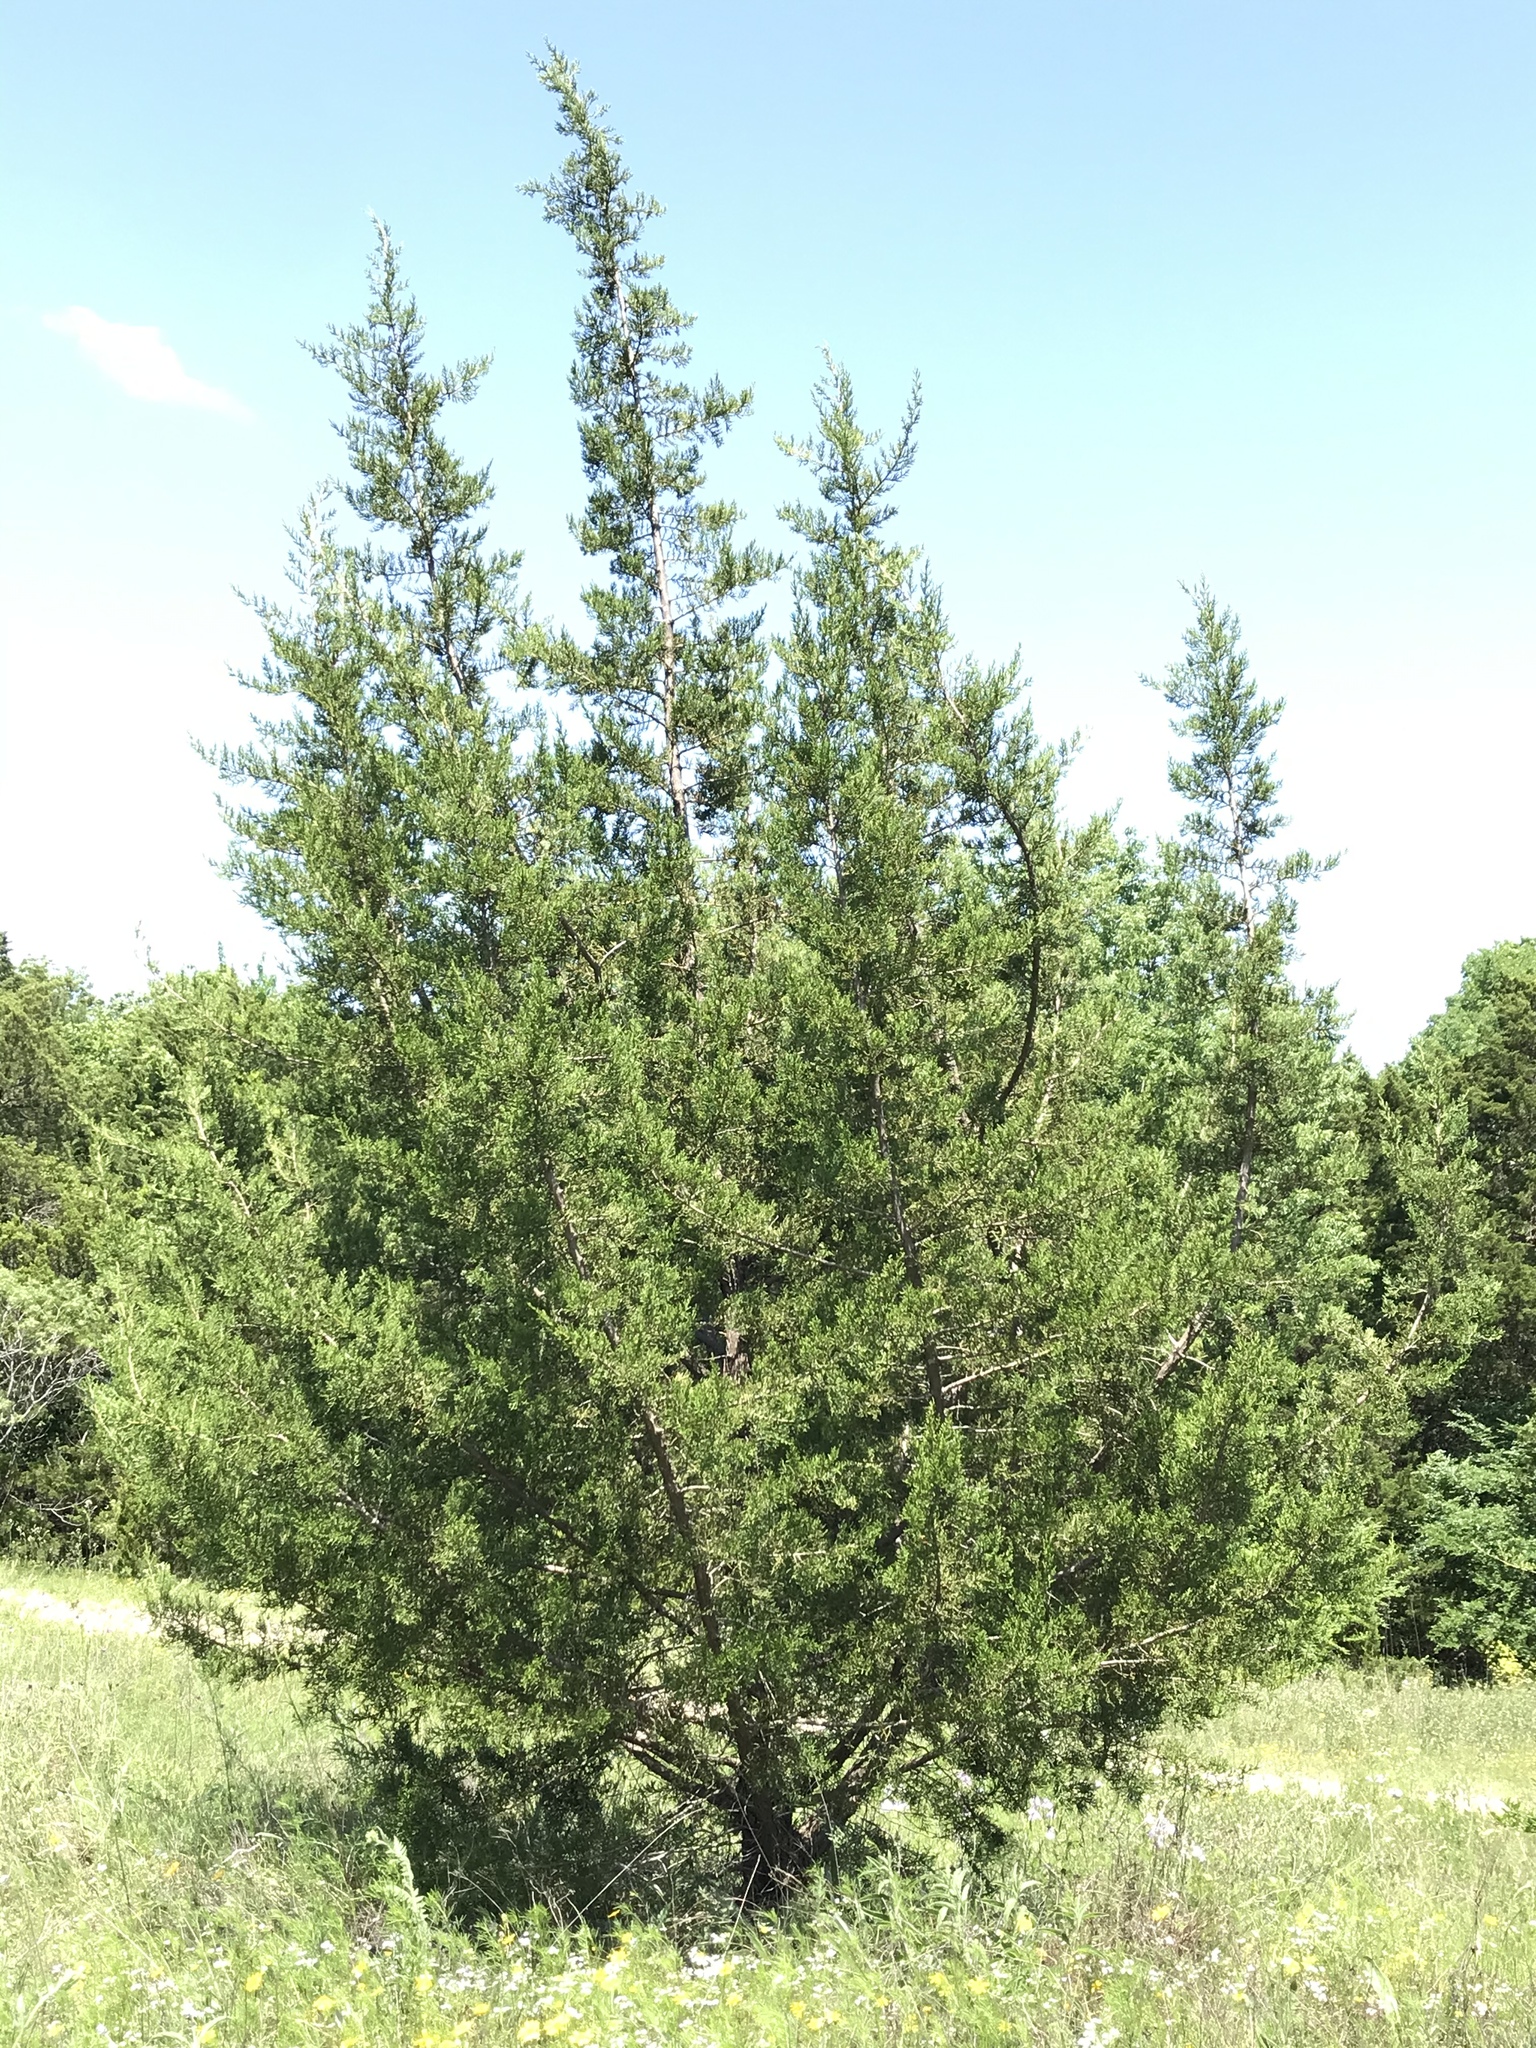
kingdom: Plantae
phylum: Tracheophyta
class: Pinopsida
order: Pinales
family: Cupressaceae
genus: Juniperus
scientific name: Juniperus virginiana
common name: Red juniper
